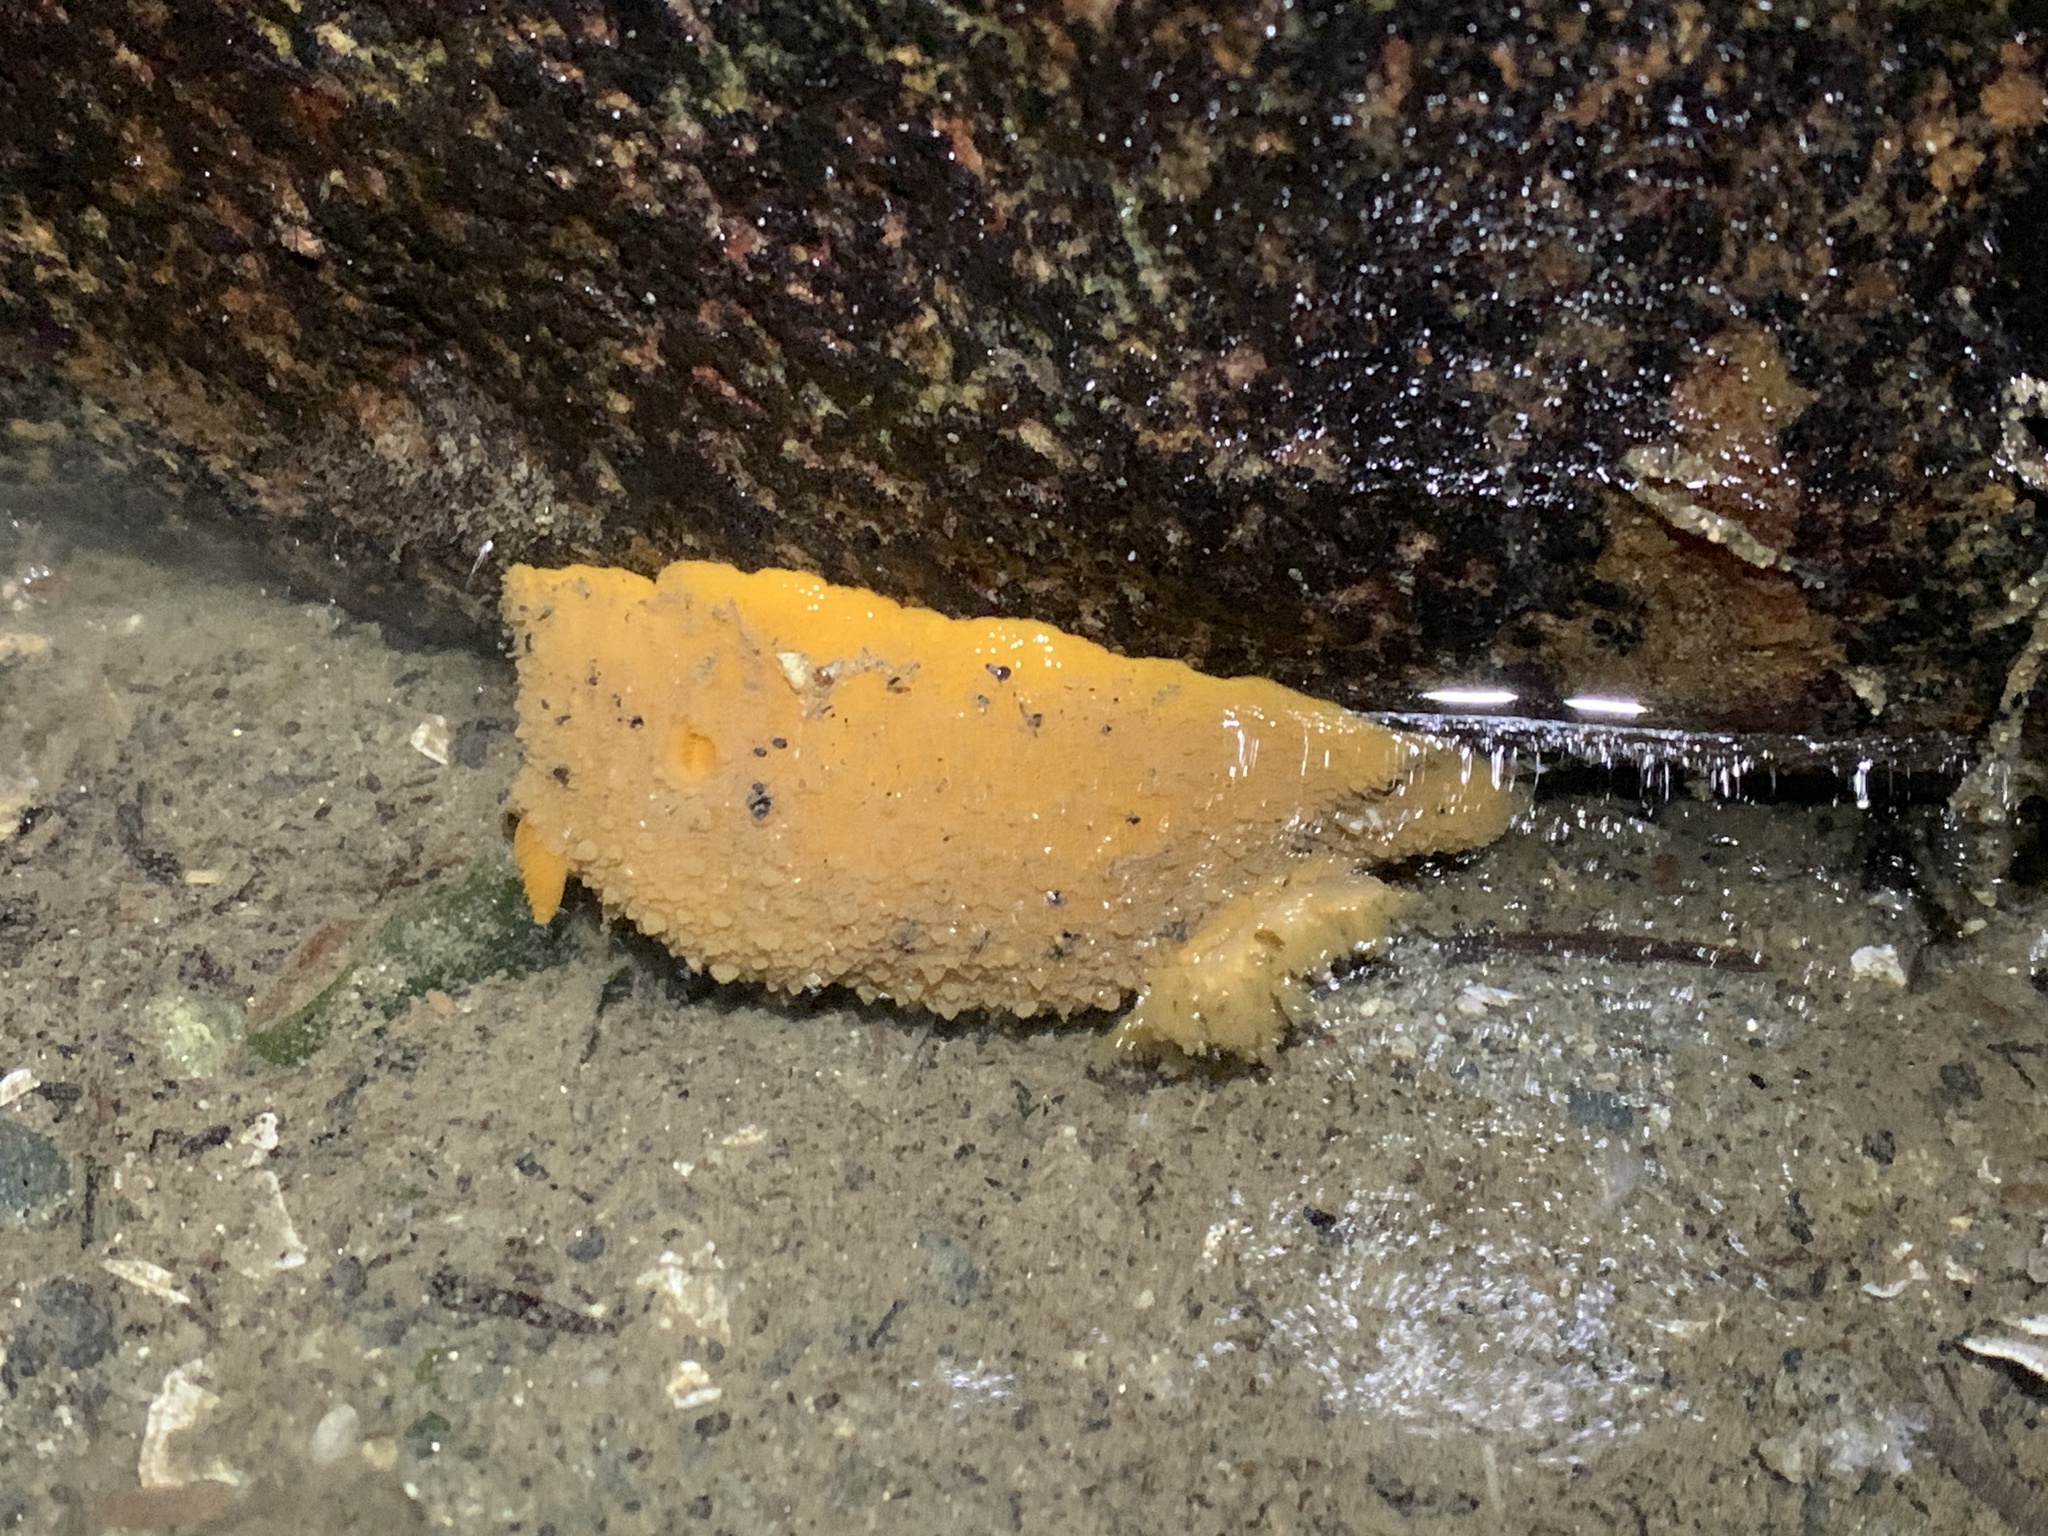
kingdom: Animalia
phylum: Mollusca
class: Gastropoda
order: Nudibranchia
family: Dorididae
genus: Doris
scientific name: Doris montereyensis
